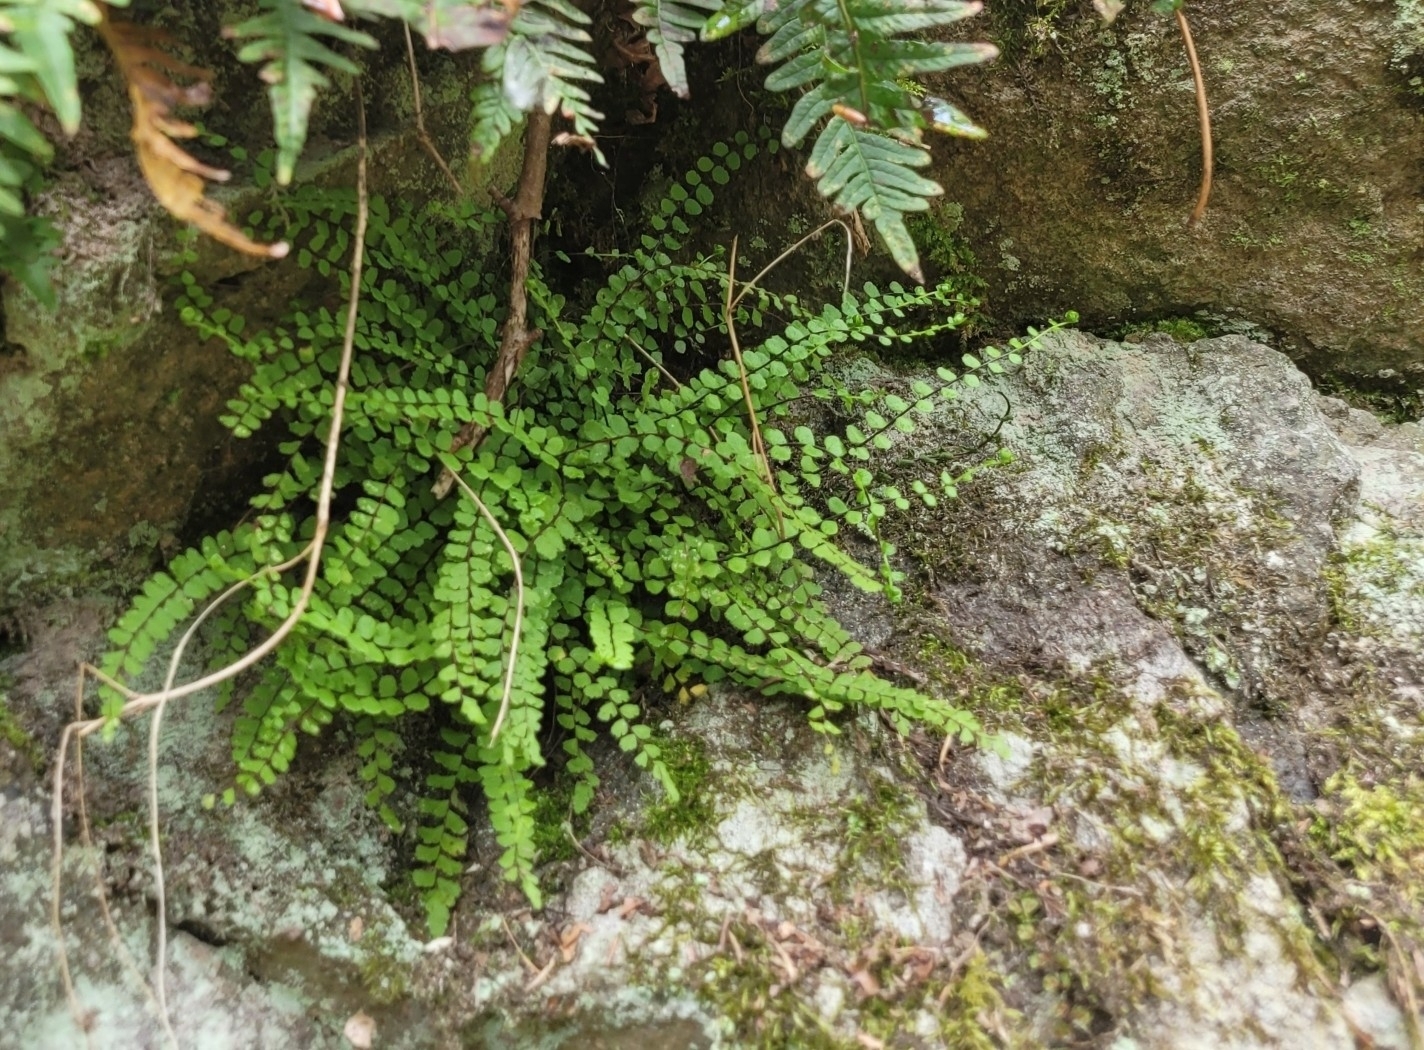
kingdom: Plantae
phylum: Tracheophyta
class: Polypodiopsida
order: Polypodiales
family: Aspleniaceae
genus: Asplenium
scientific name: Asplenium trichomanes
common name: Maidenhair spleenwort
